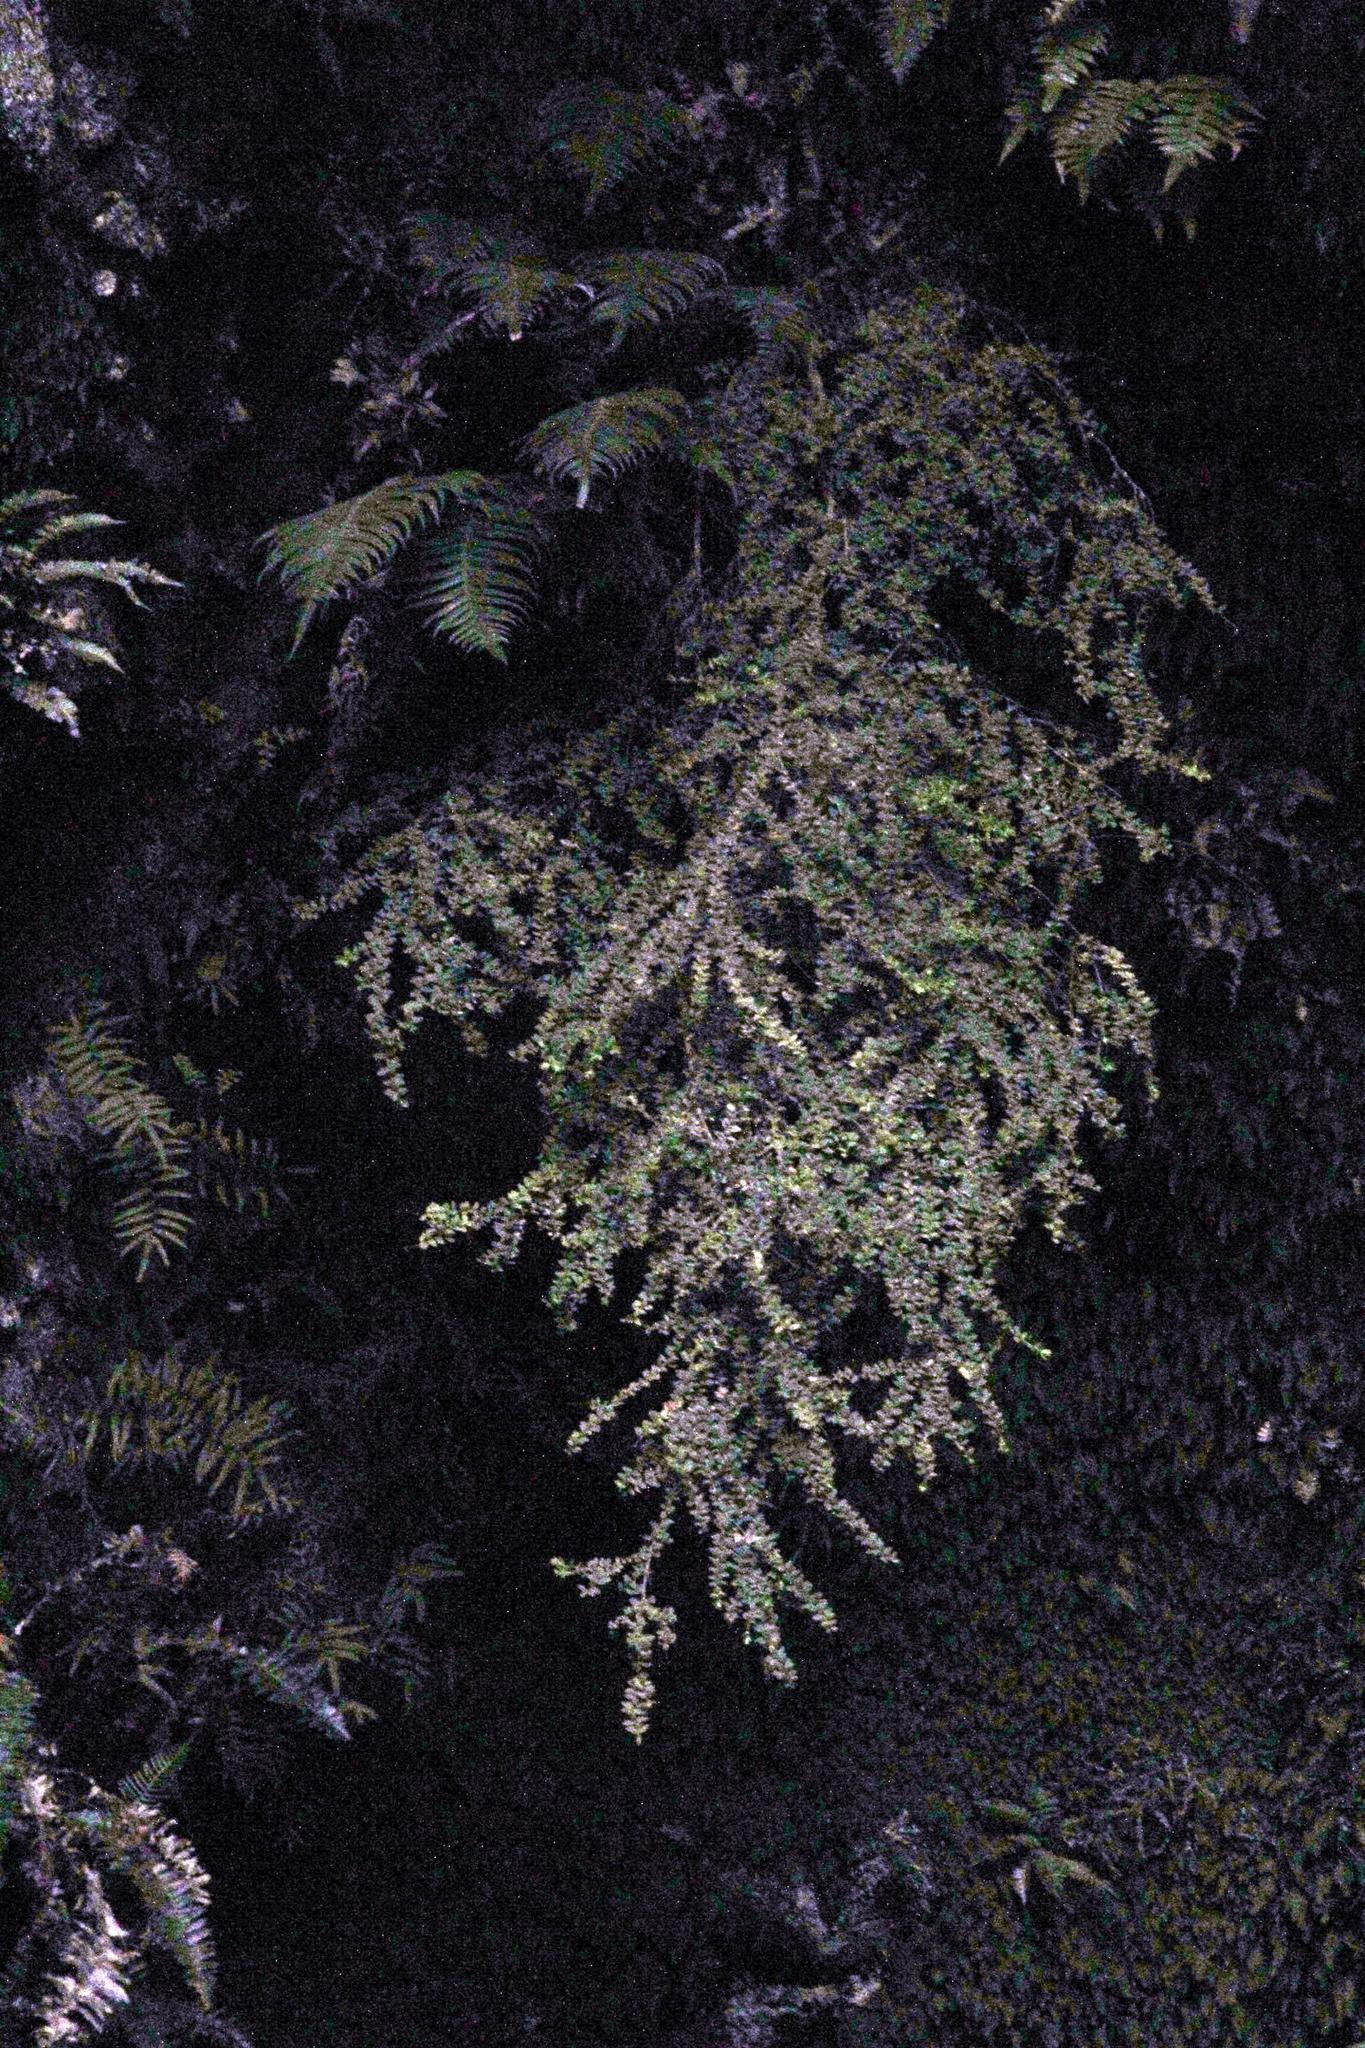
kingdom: Plantae
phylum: Tracheophyta
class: Magnoliopsida
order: Ericales
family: Ericaceae
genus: Erica
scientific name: Erica marifolia
